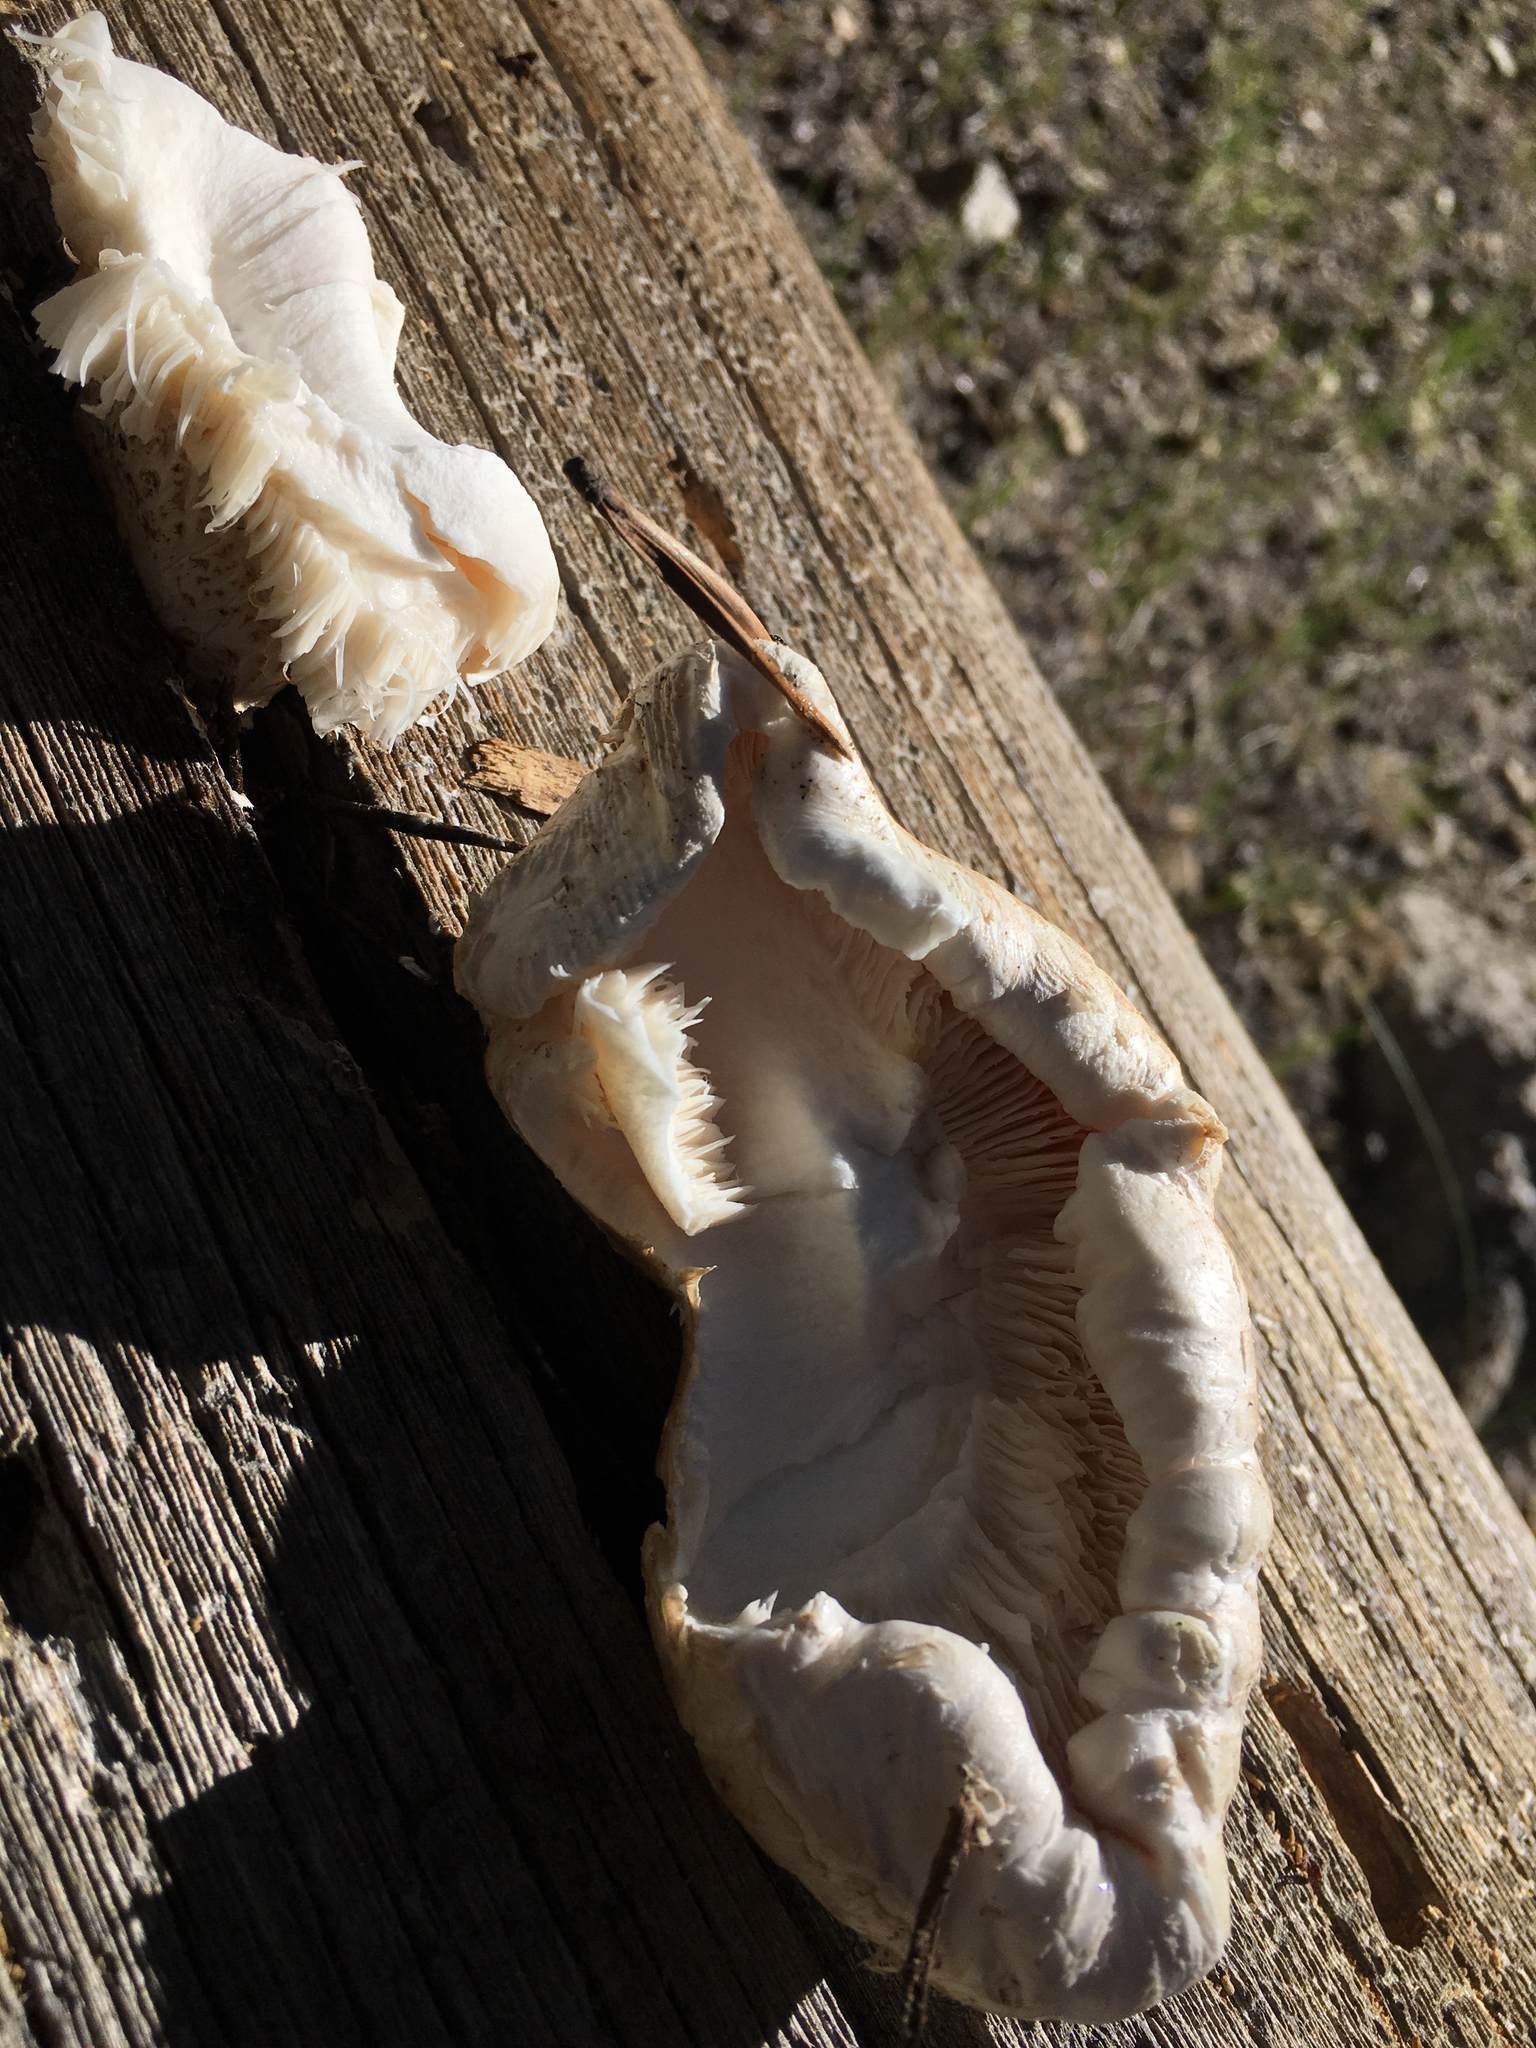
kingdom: Fungi
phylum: Basidiomycota
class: Agaricomycetes
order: Gloeophyllales
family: Gloeophyllaceae
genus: Neolentinus
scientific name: Neolentinus ponderosus
